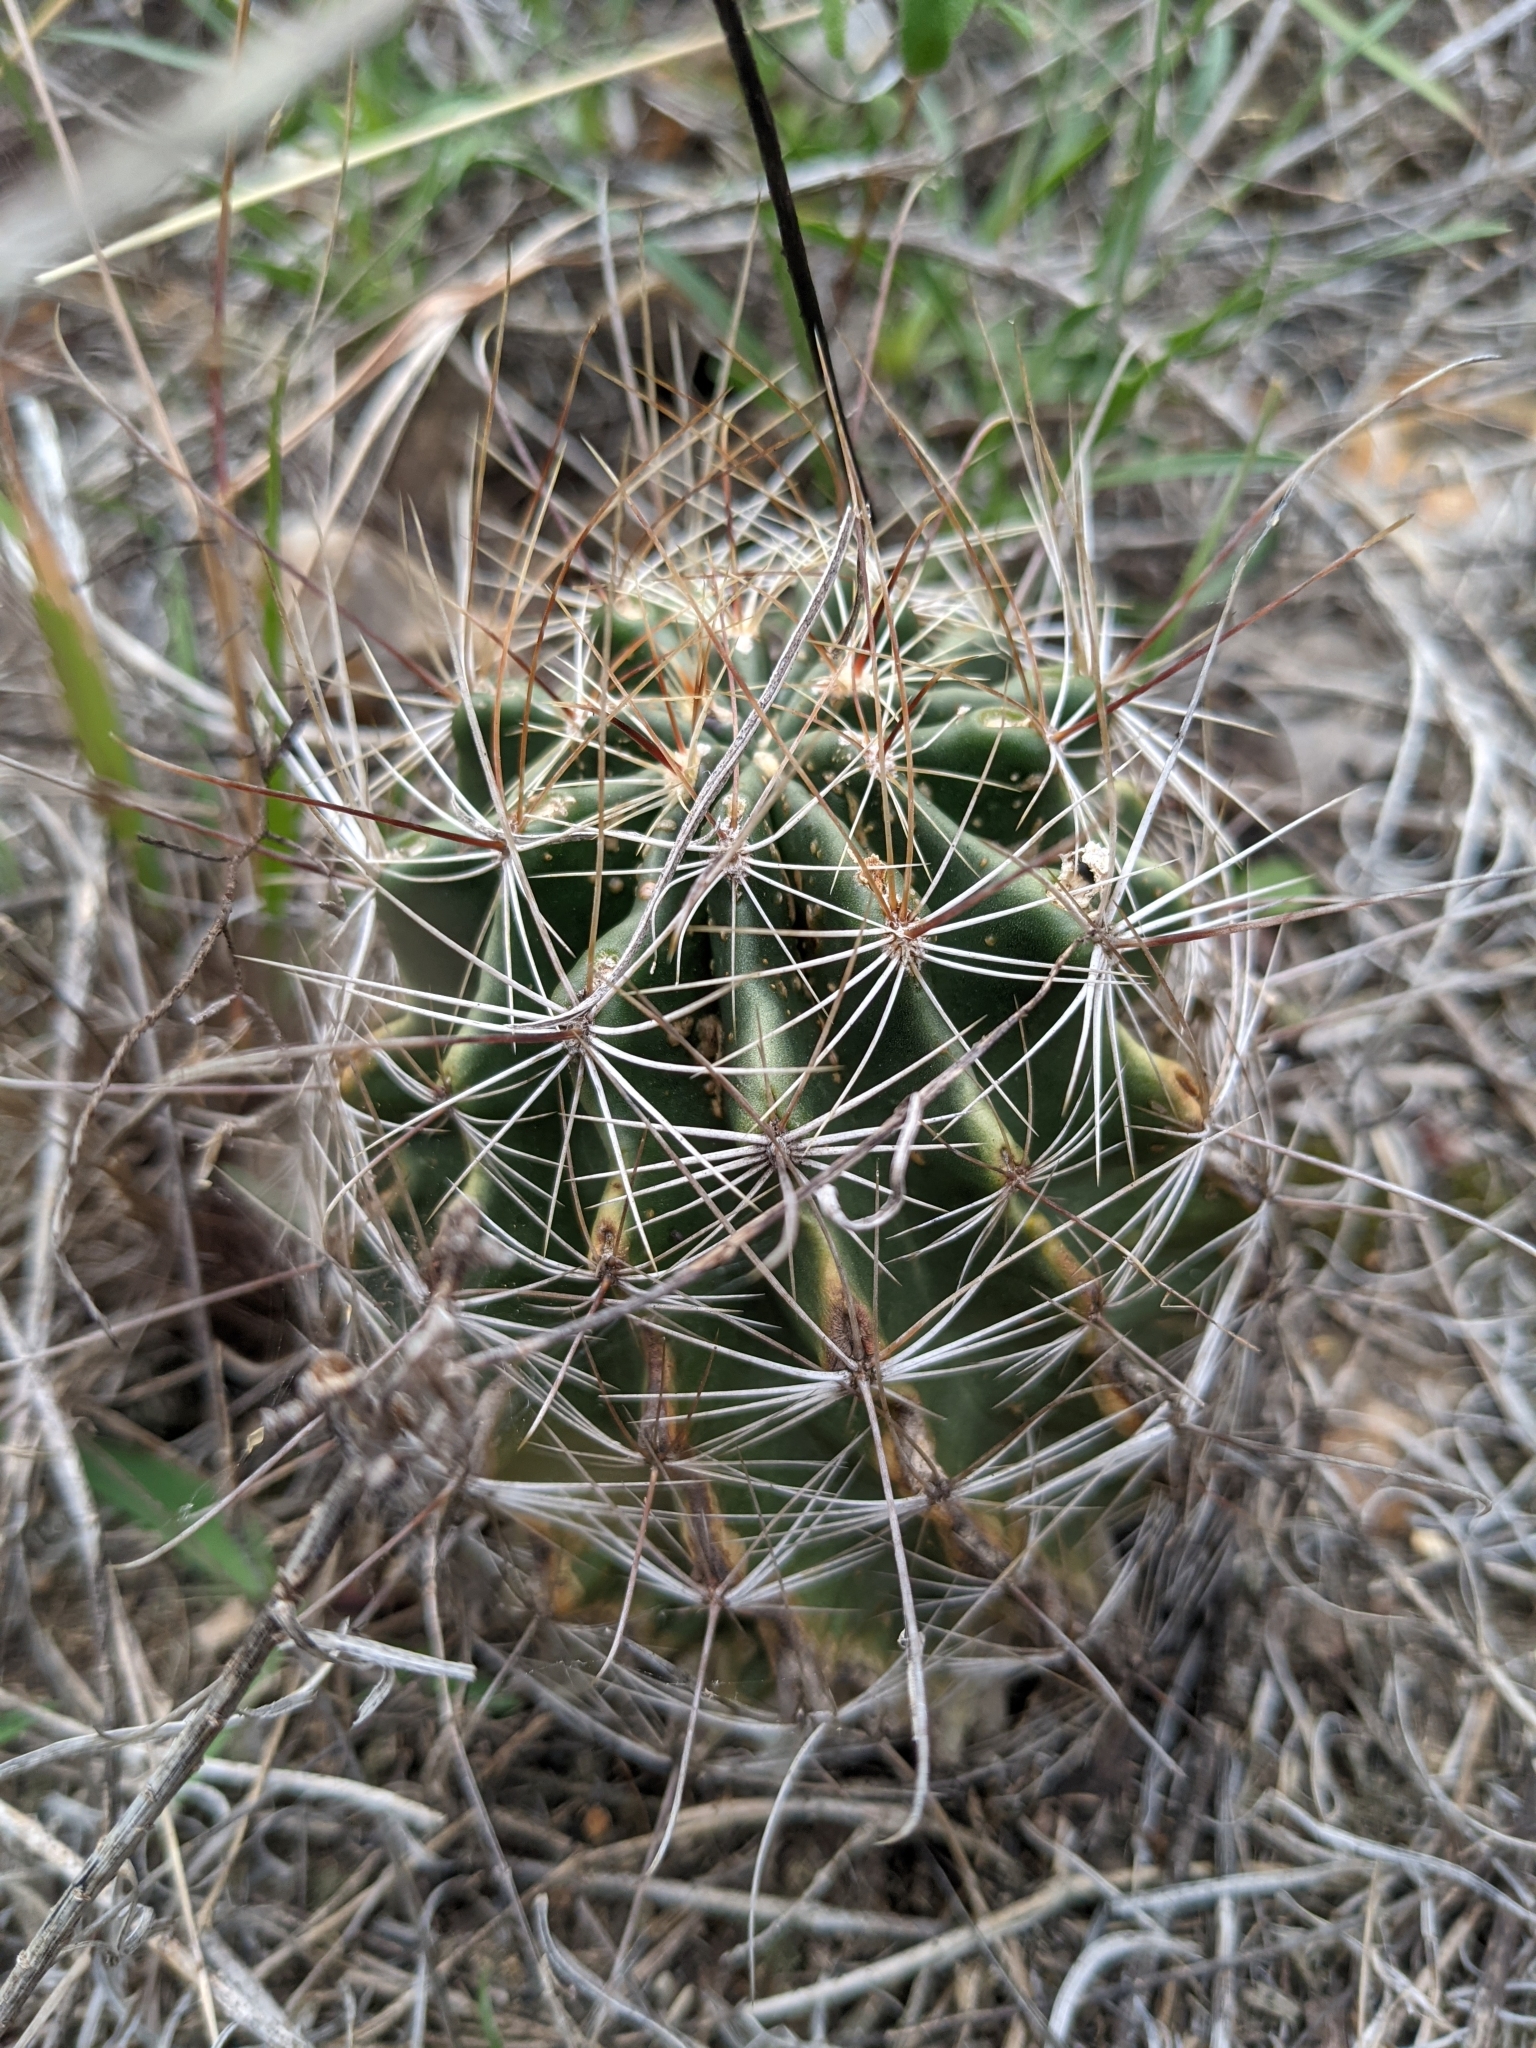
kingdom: Plantae
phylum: Tracheophyta
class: Magnoliopsida
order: Caryophyllales
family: Cactaceae
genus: Thelocactus
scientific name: Thelocactus setispinus
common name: Miniature barrel cactus
